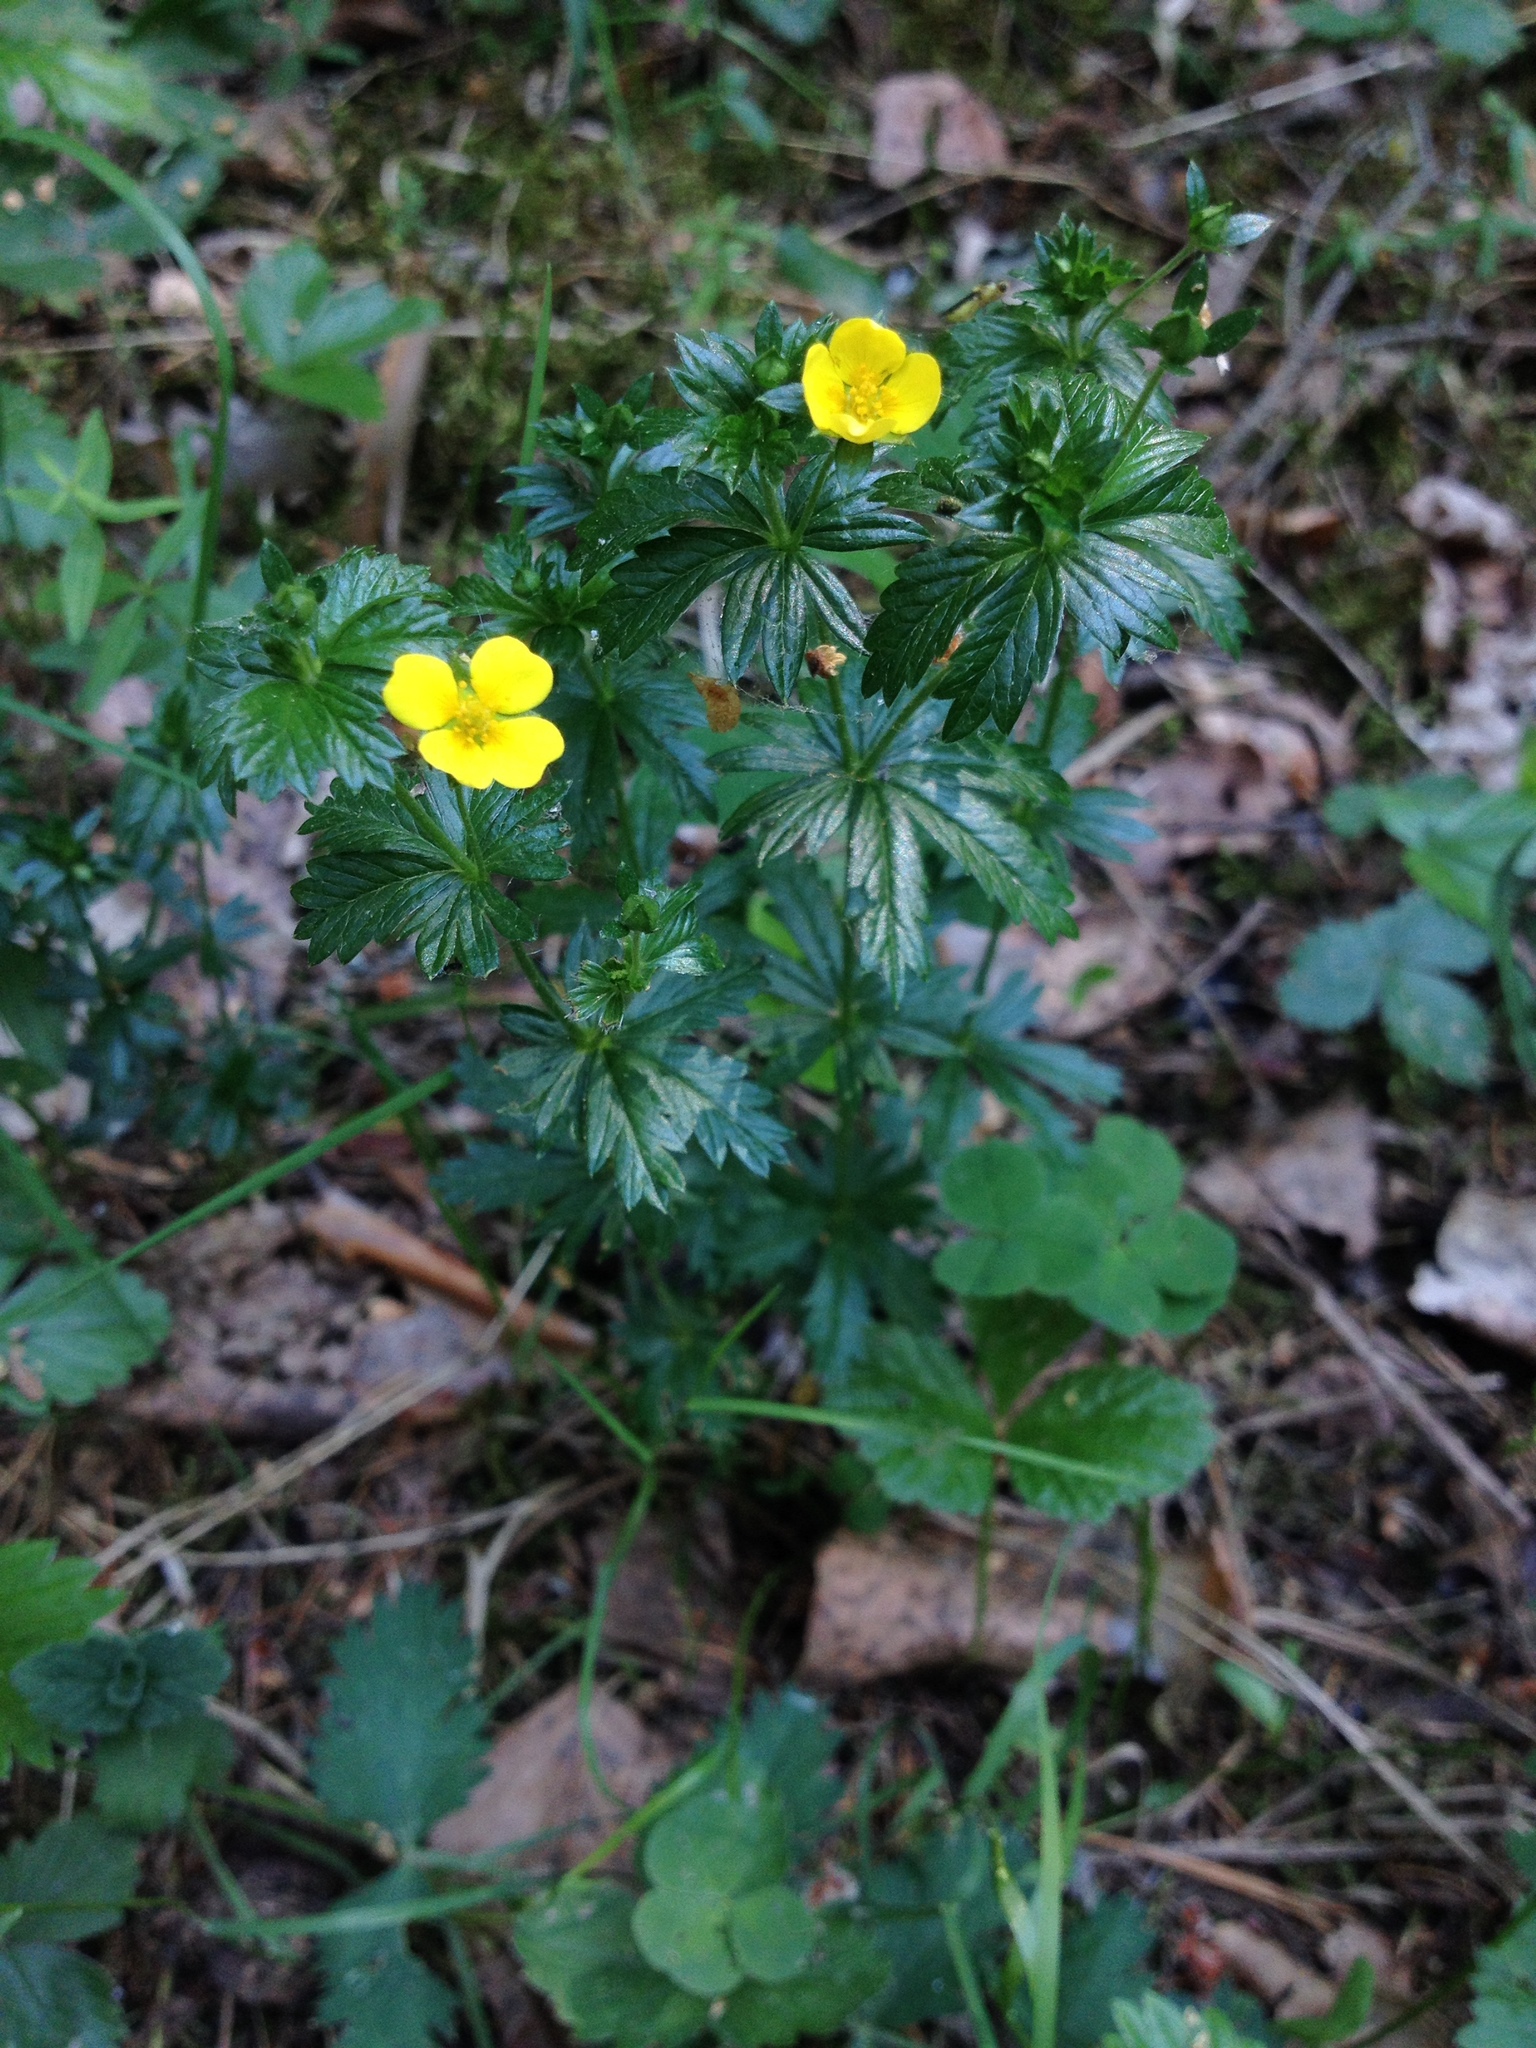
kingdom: Plantae
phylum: Tracheophyta
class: Magnoliopsida
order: Rosales
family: Rosaceae
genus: Potentilla
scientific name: Potentilla erecta
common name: Tormentil
